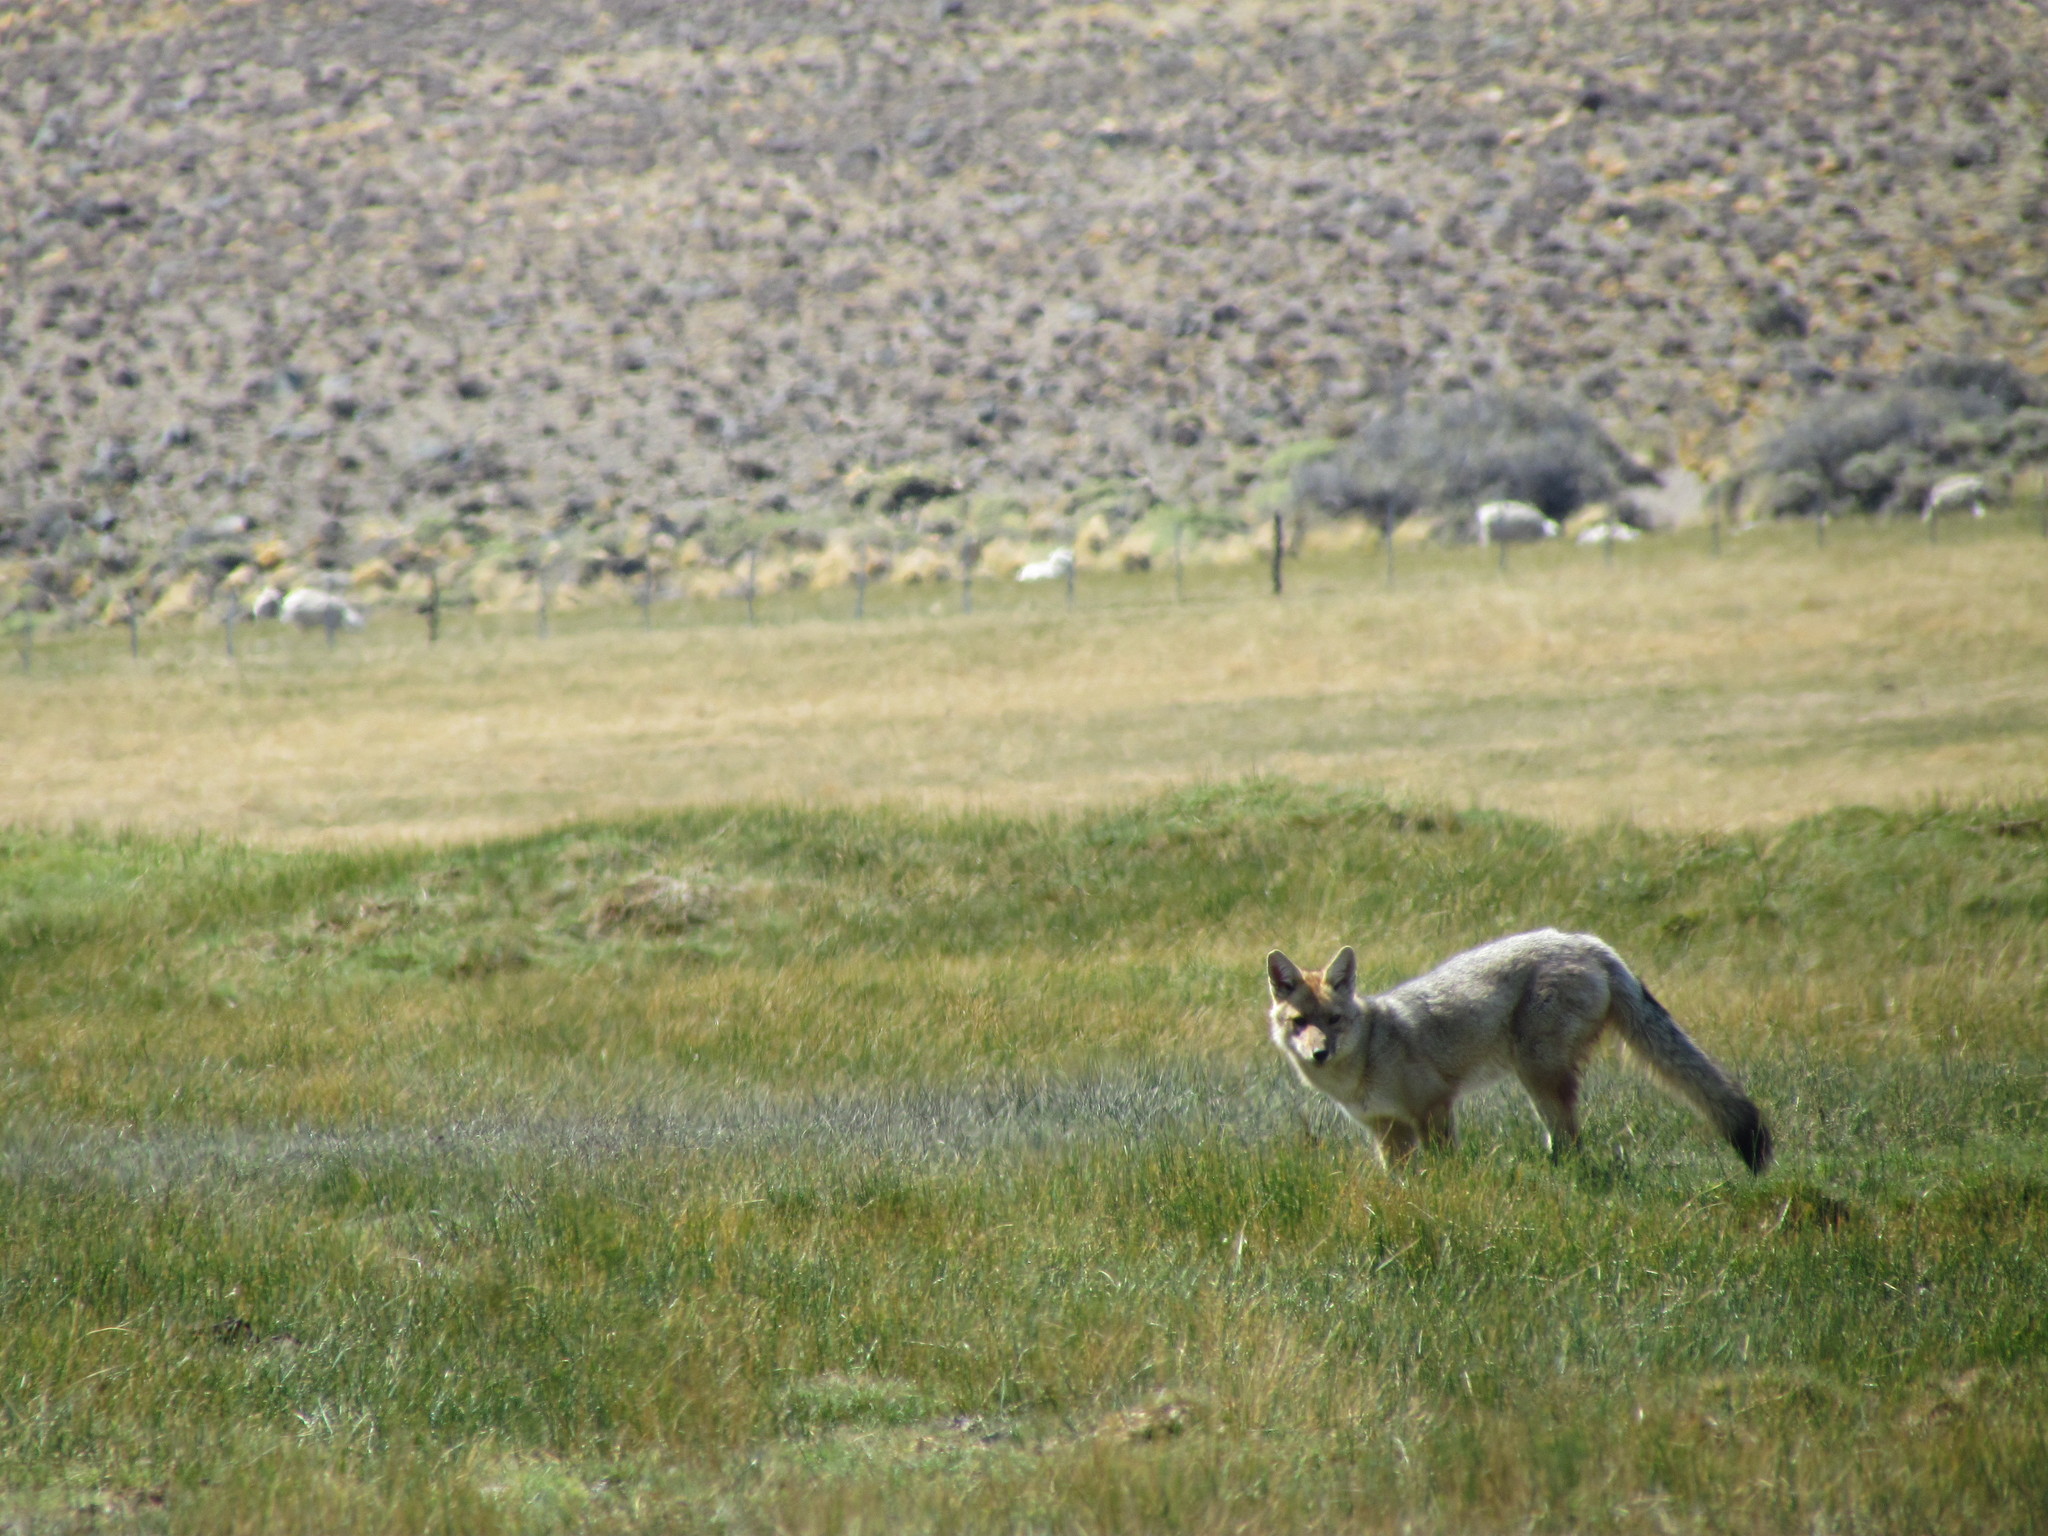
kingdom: Animalia
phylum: Chordata
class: Mammalia
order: Carnivora
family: Canidae
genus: Lycalopex
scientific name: Lycalopex gymnocercus
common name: Pampas fox
